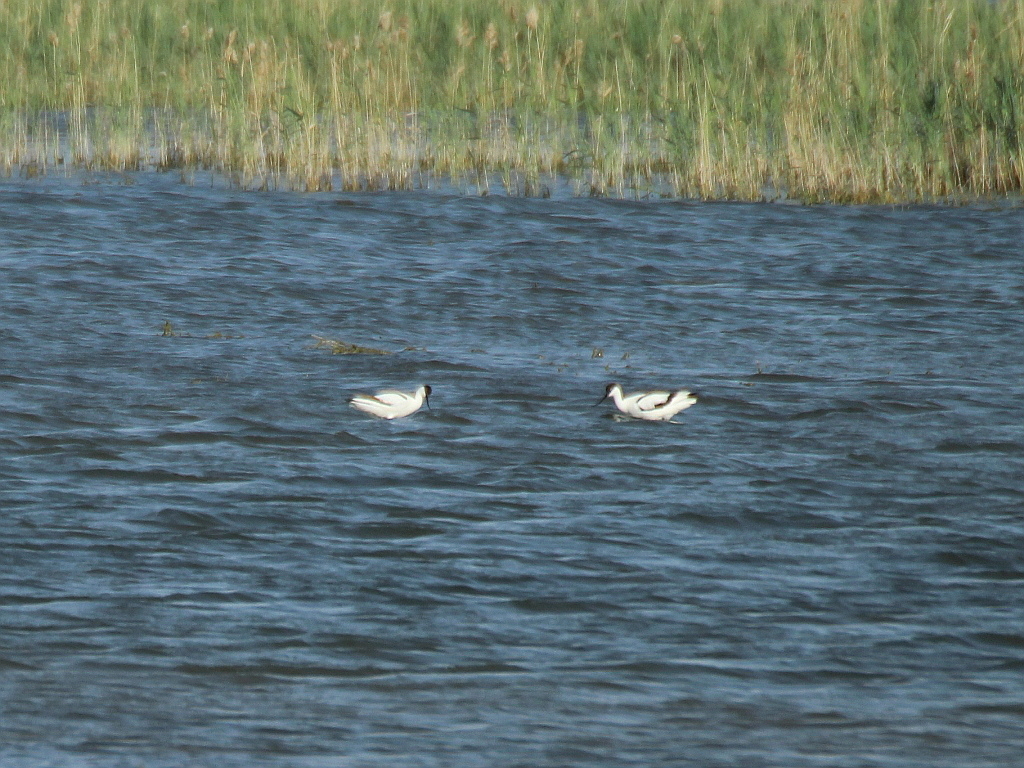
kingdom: Animalia
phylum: Chordata
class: Aves
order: Charadriiformes
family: Recurvirostridae
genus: Recurvirostra
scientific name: Recurvirostra avosetta
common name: Pied avocet
